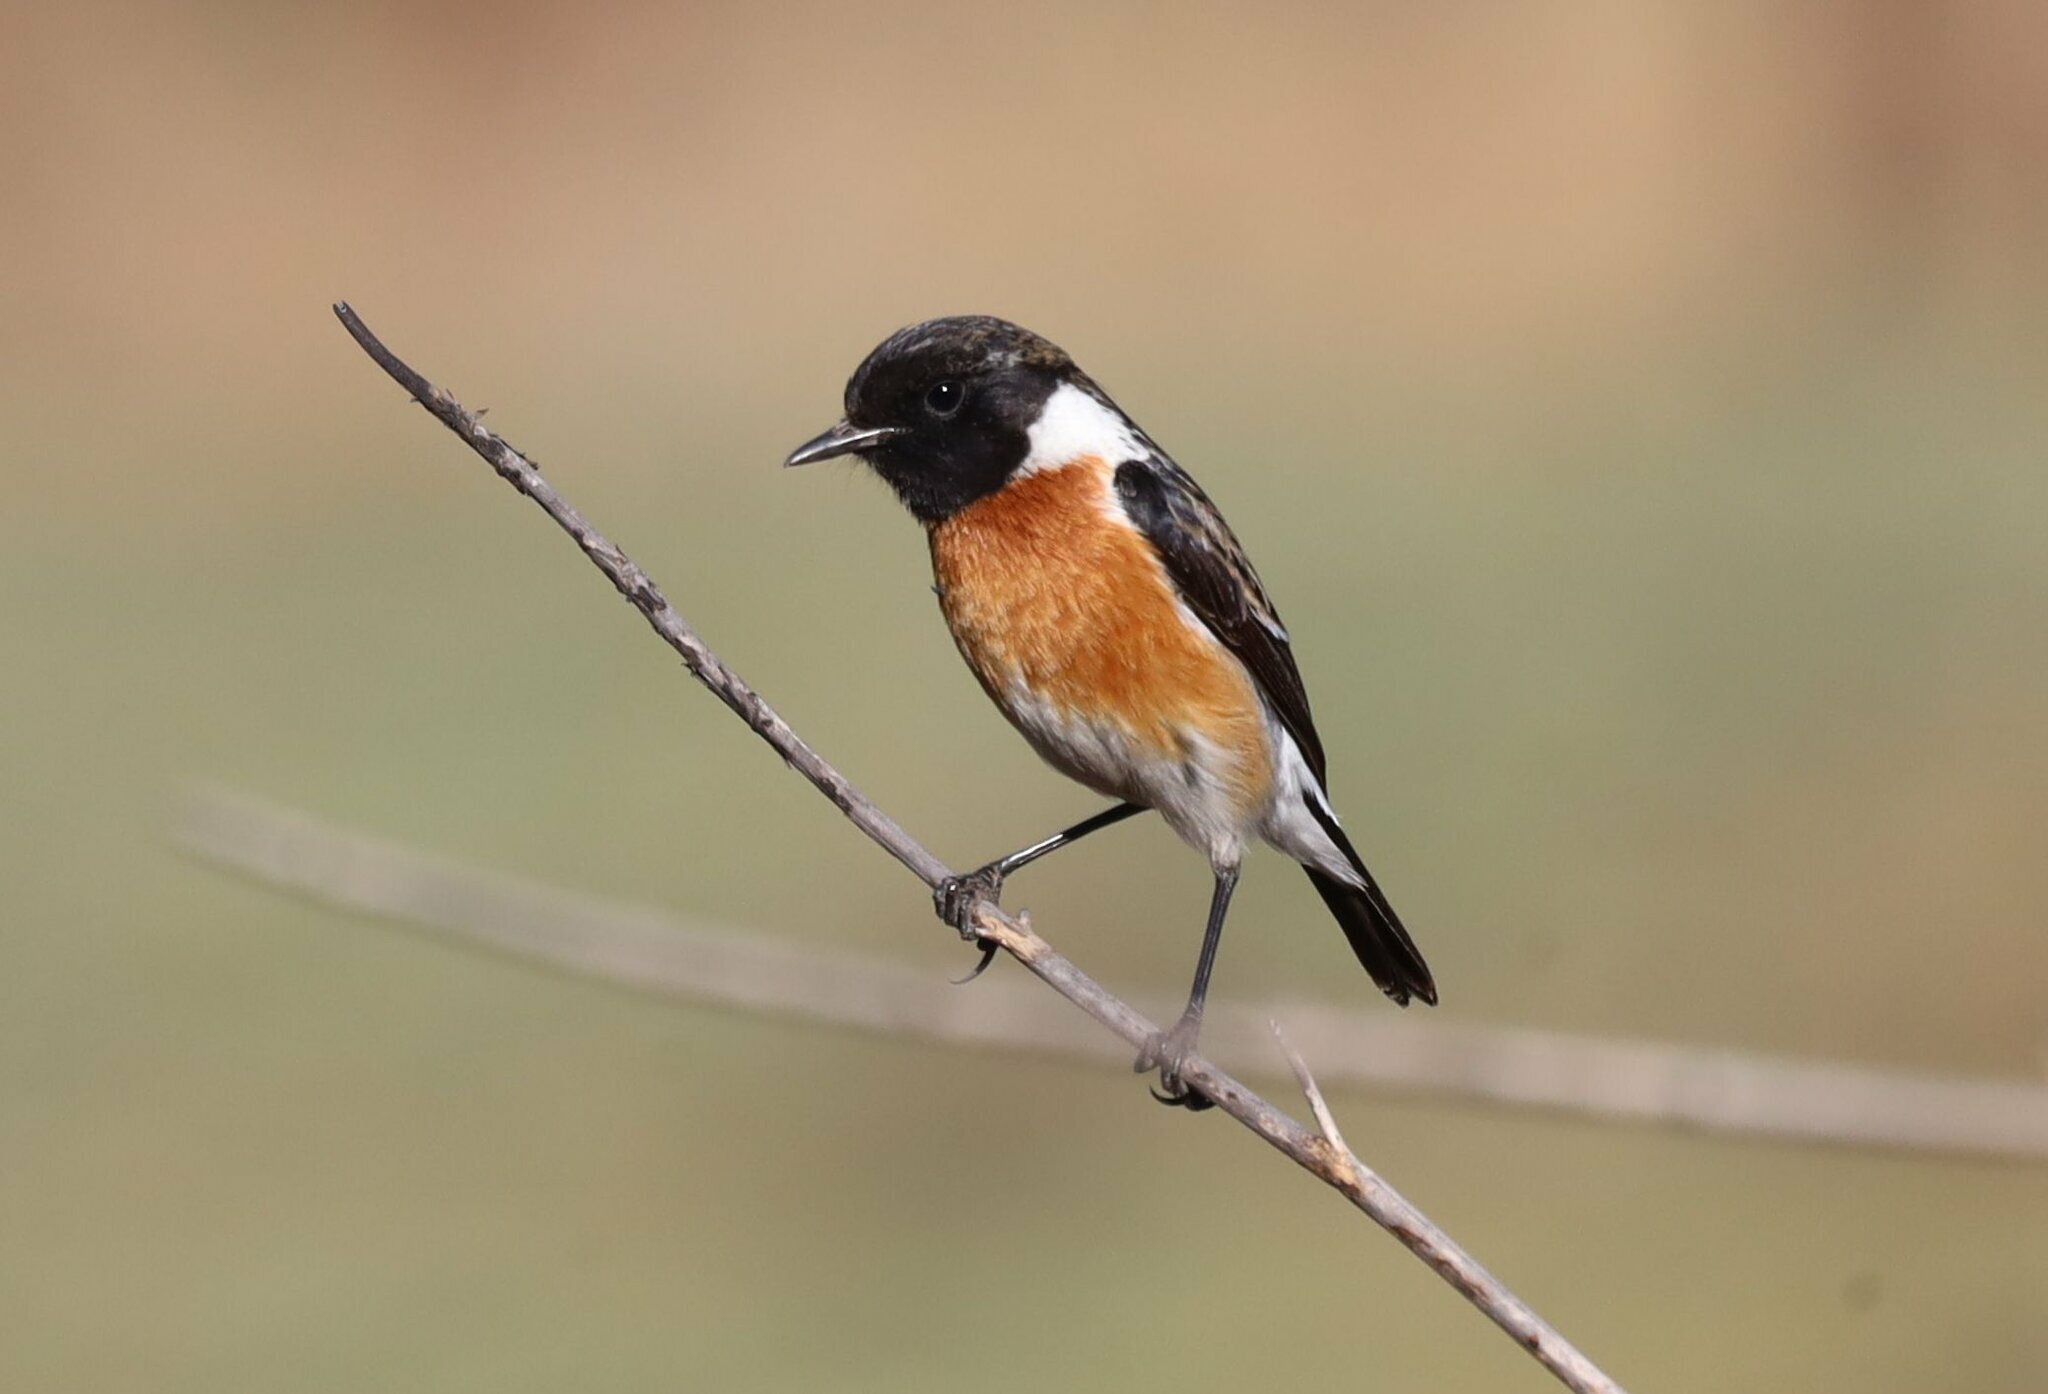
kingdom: Animalia
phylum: Chordata
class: Aves
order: Passeriformes
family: Muscicapidae
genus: Saxicola
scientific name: Saxicola torquatus
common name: African stonechat
